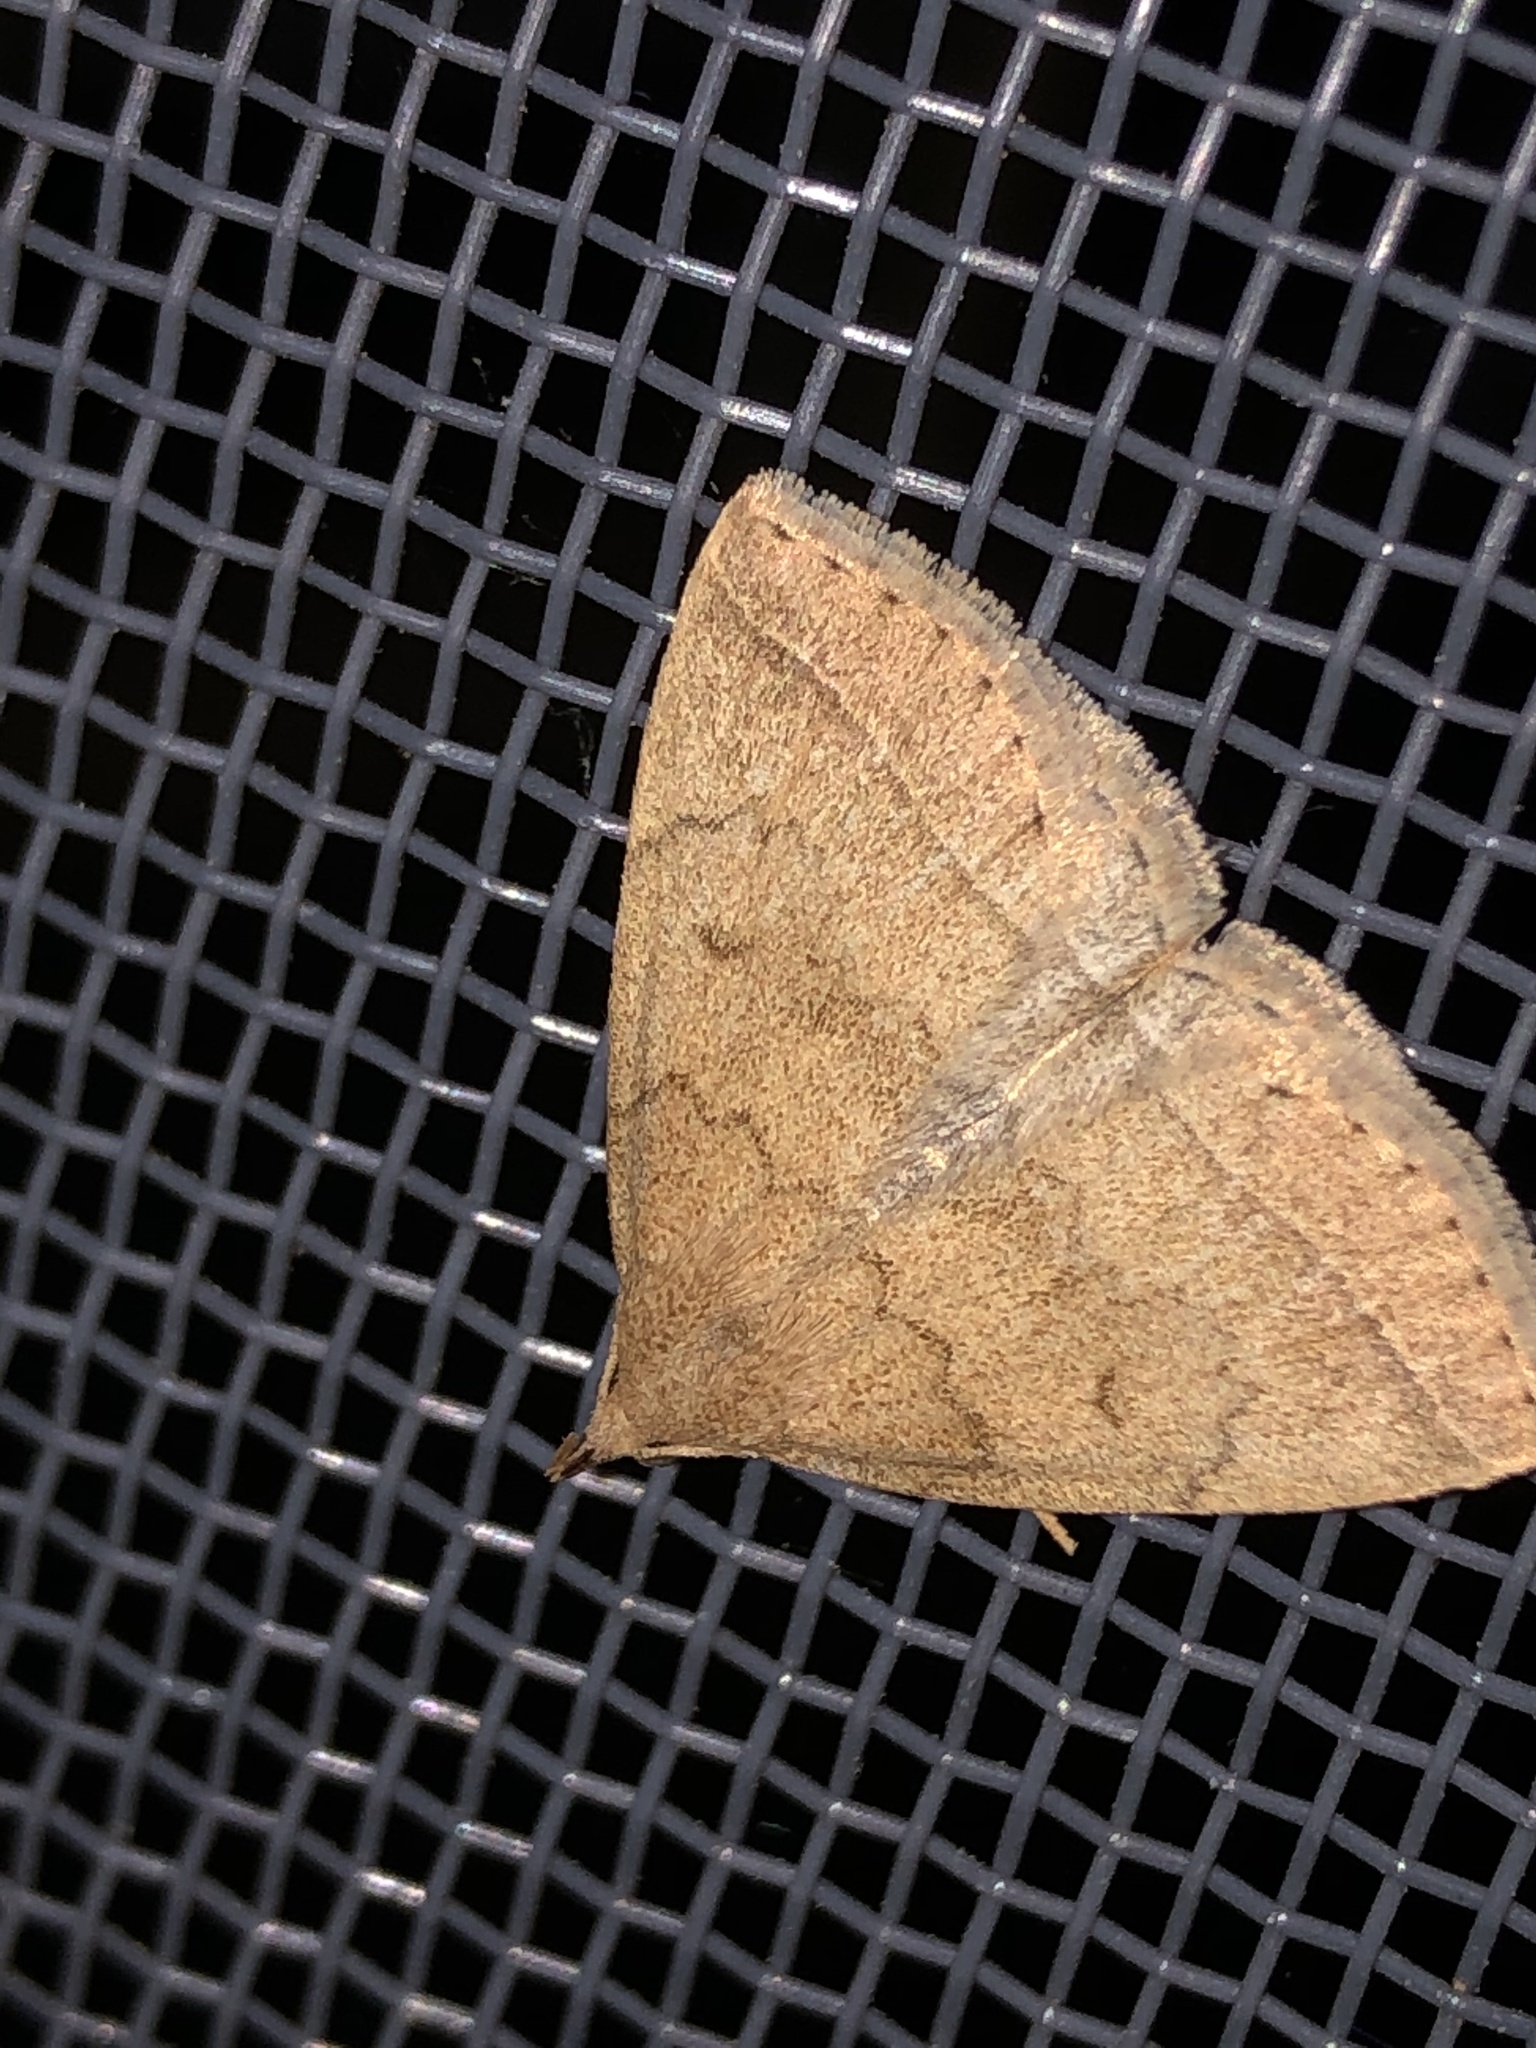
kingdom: Animalia
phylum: Arthropoda
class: Insecta
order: Lepidoptera
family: Erebidae
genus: Zanclognatha
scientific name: Zanclognatha jacchusalis
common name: Yellowish zanclognatha
